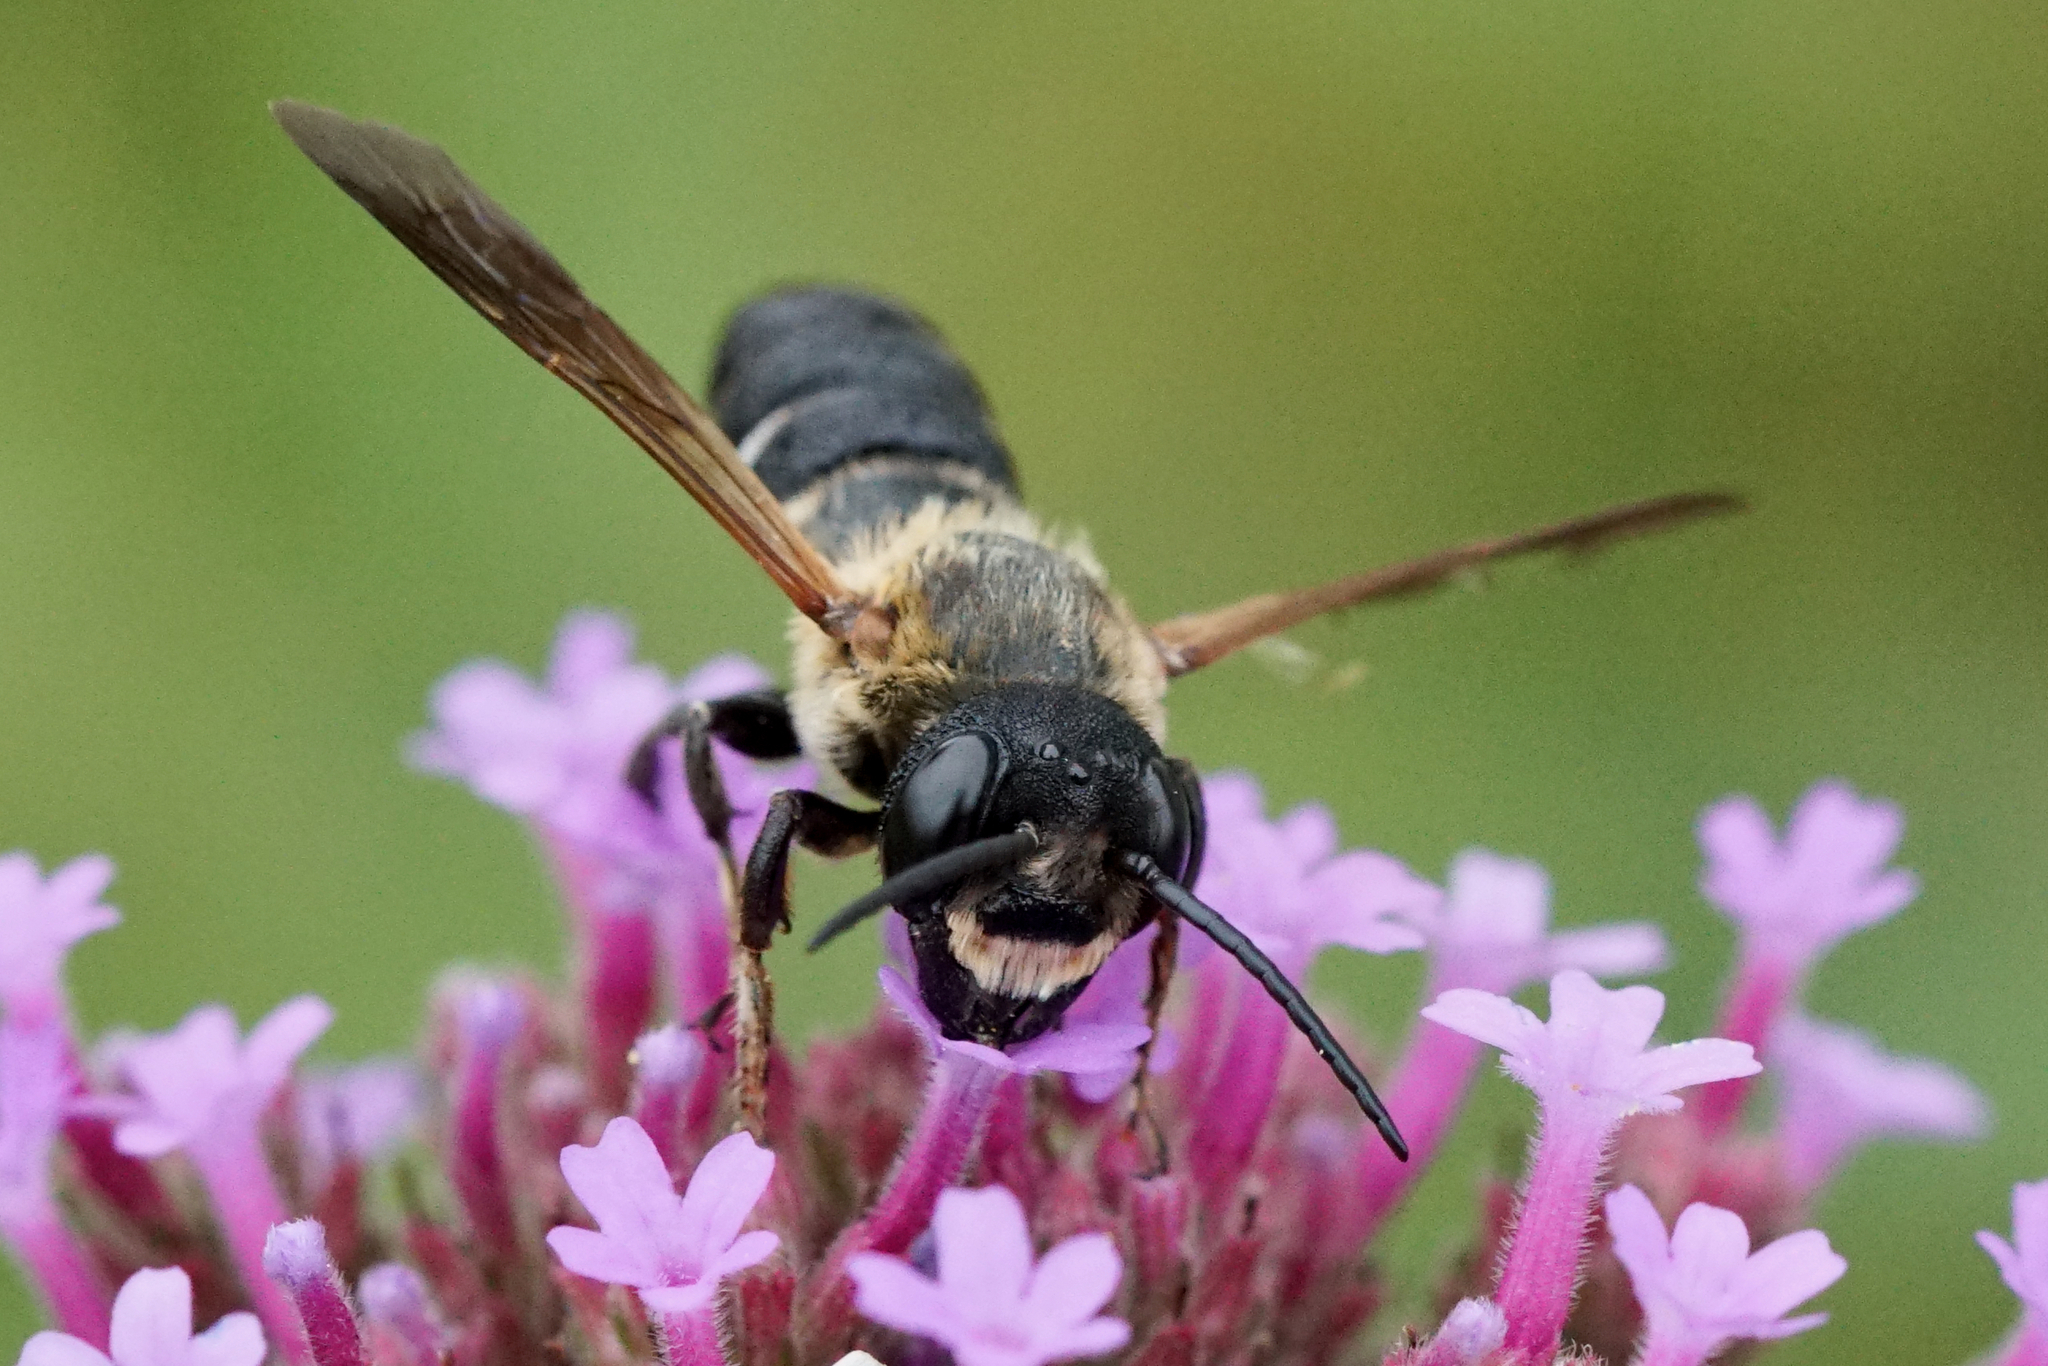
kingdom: Animalia
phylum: Arthropoda
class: Insecta
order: Hymenoptera
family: Megachilidae
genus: Megachile
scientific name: Megachile sculpturalis
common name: Sculptured resin bee
